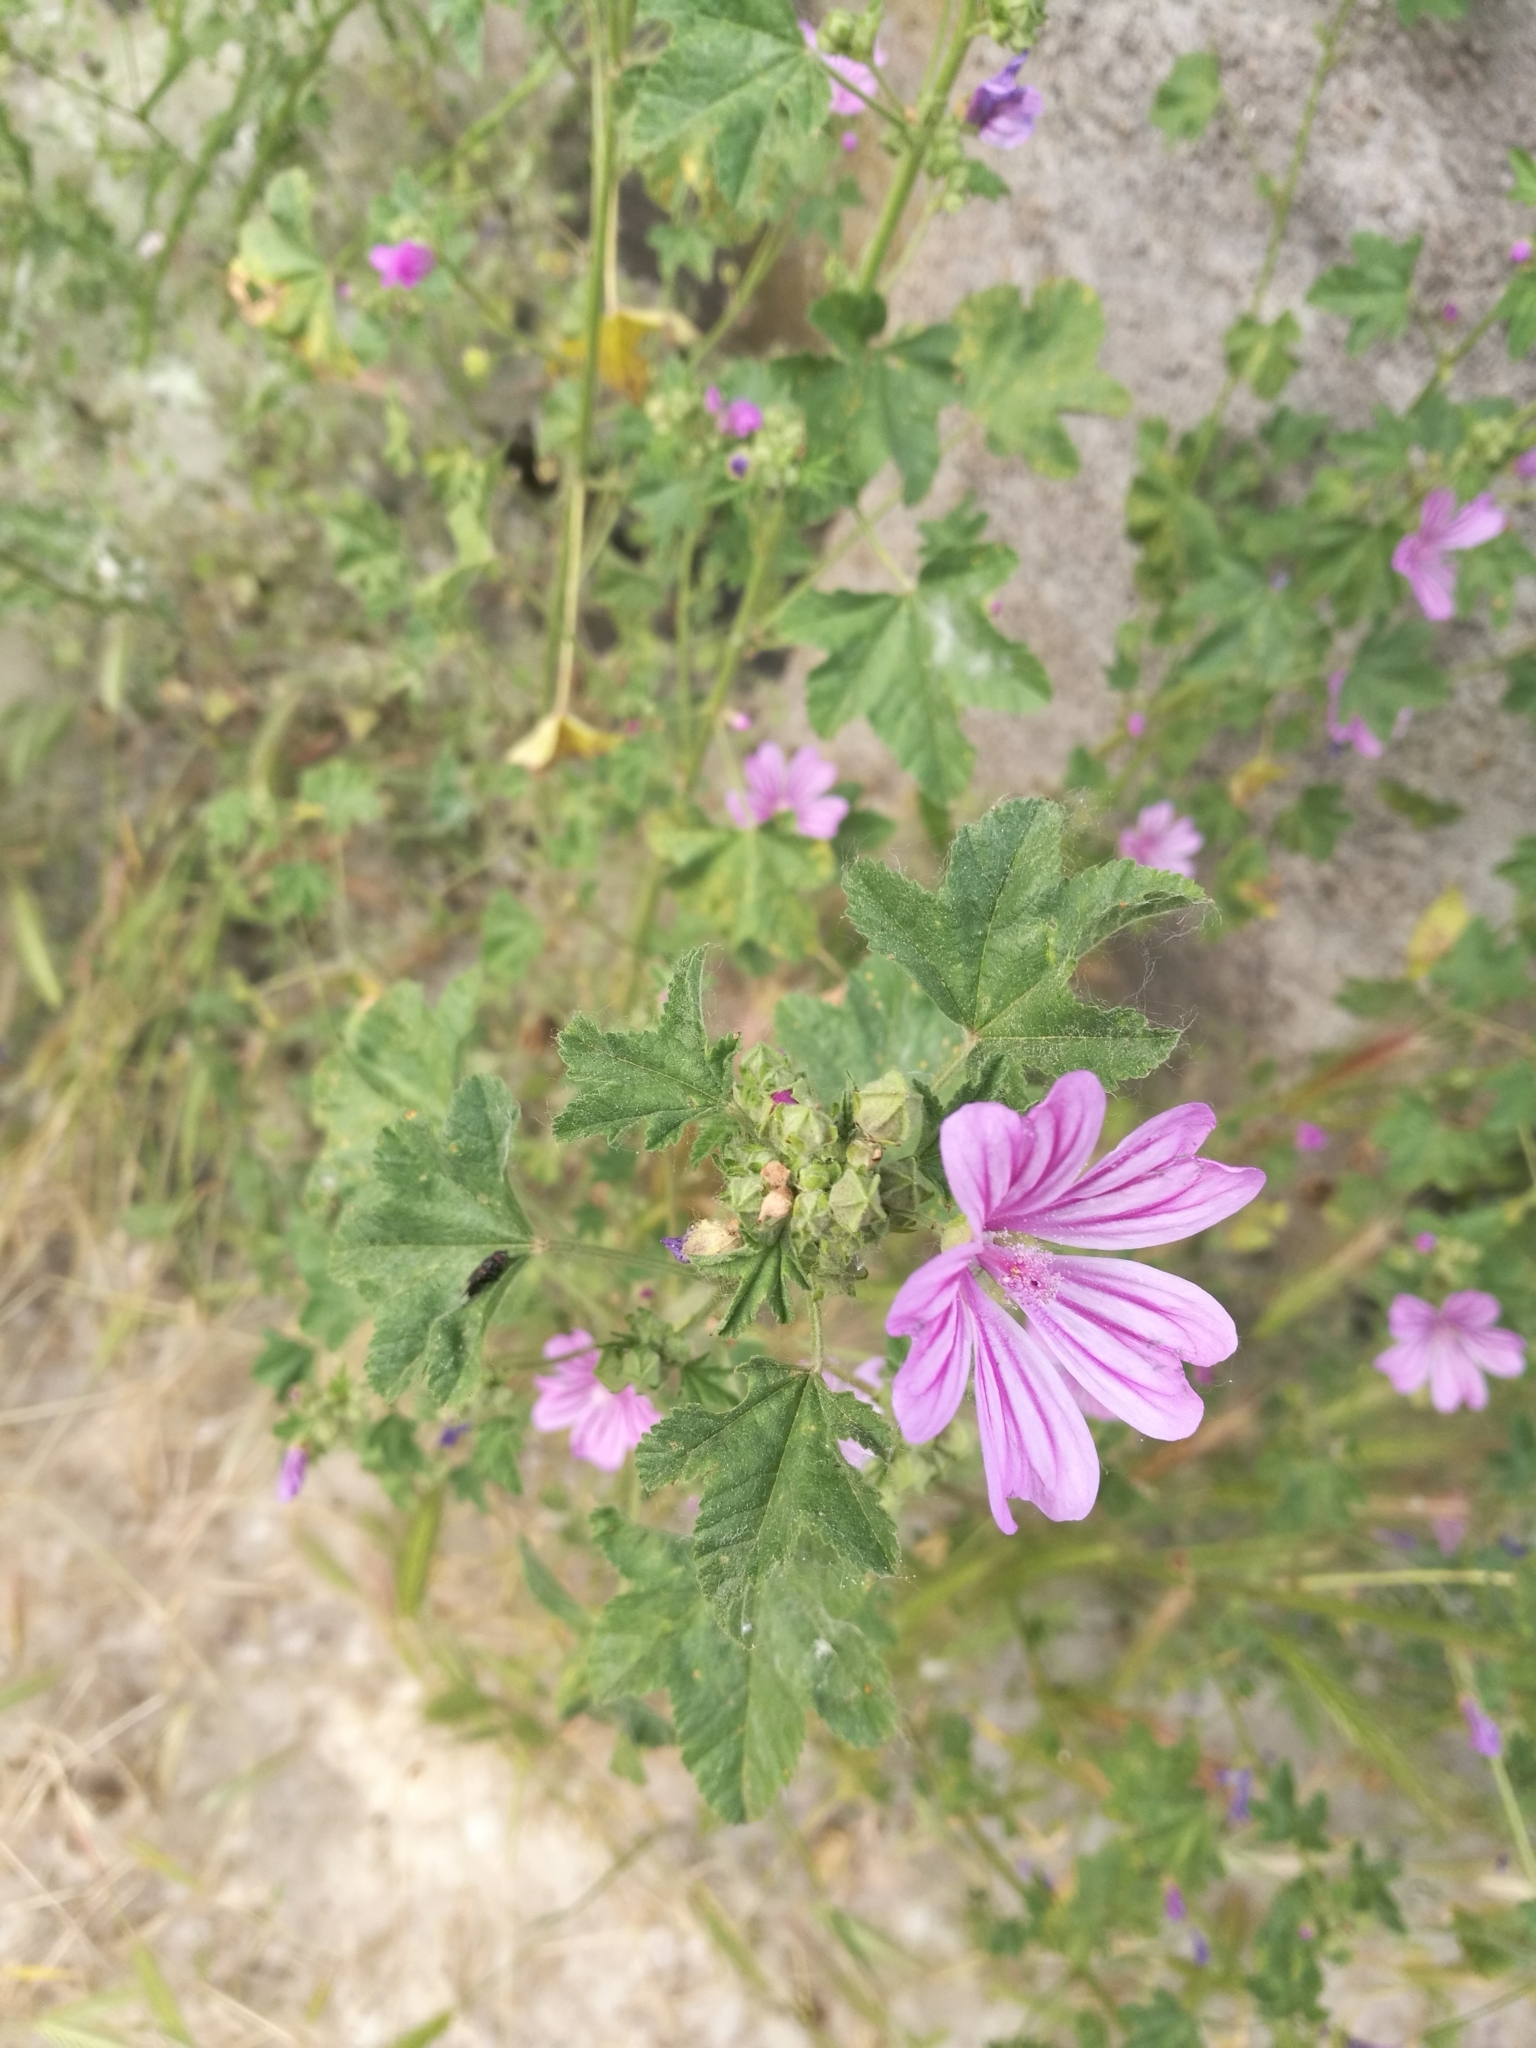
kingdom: Plantae
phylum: Tracheophyta
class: Magnoliopsida
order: Malvales
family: Malvaceae
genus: Malva
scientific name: Malva sylvestris
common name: Common mallow
